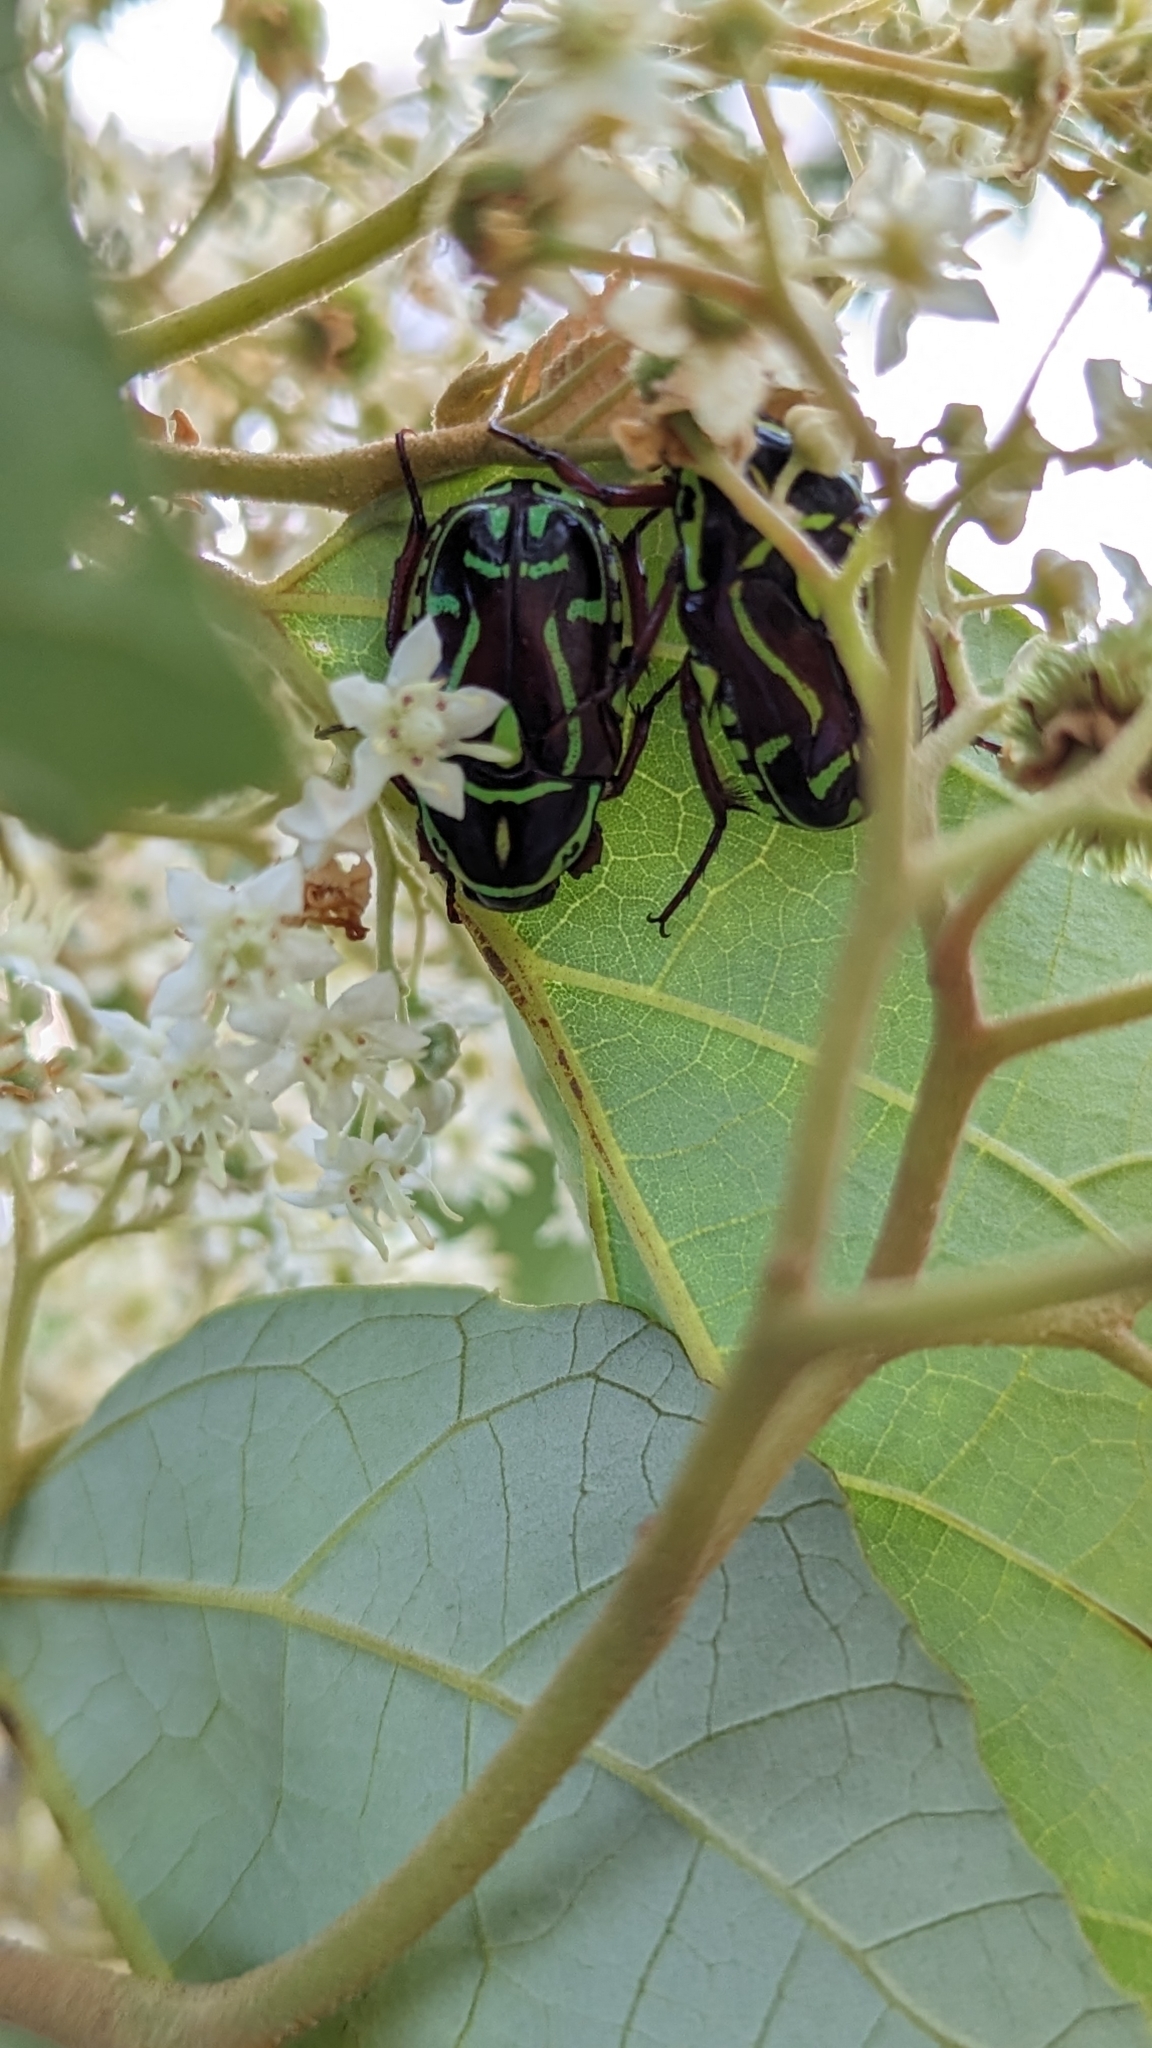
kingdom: Animalia
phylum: Arthropoda
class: Insecta
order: Coleoptera
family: Scarabaeidae
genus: Eupoecila
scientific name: Eupoecila australasiae
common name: Fiddler beetle
